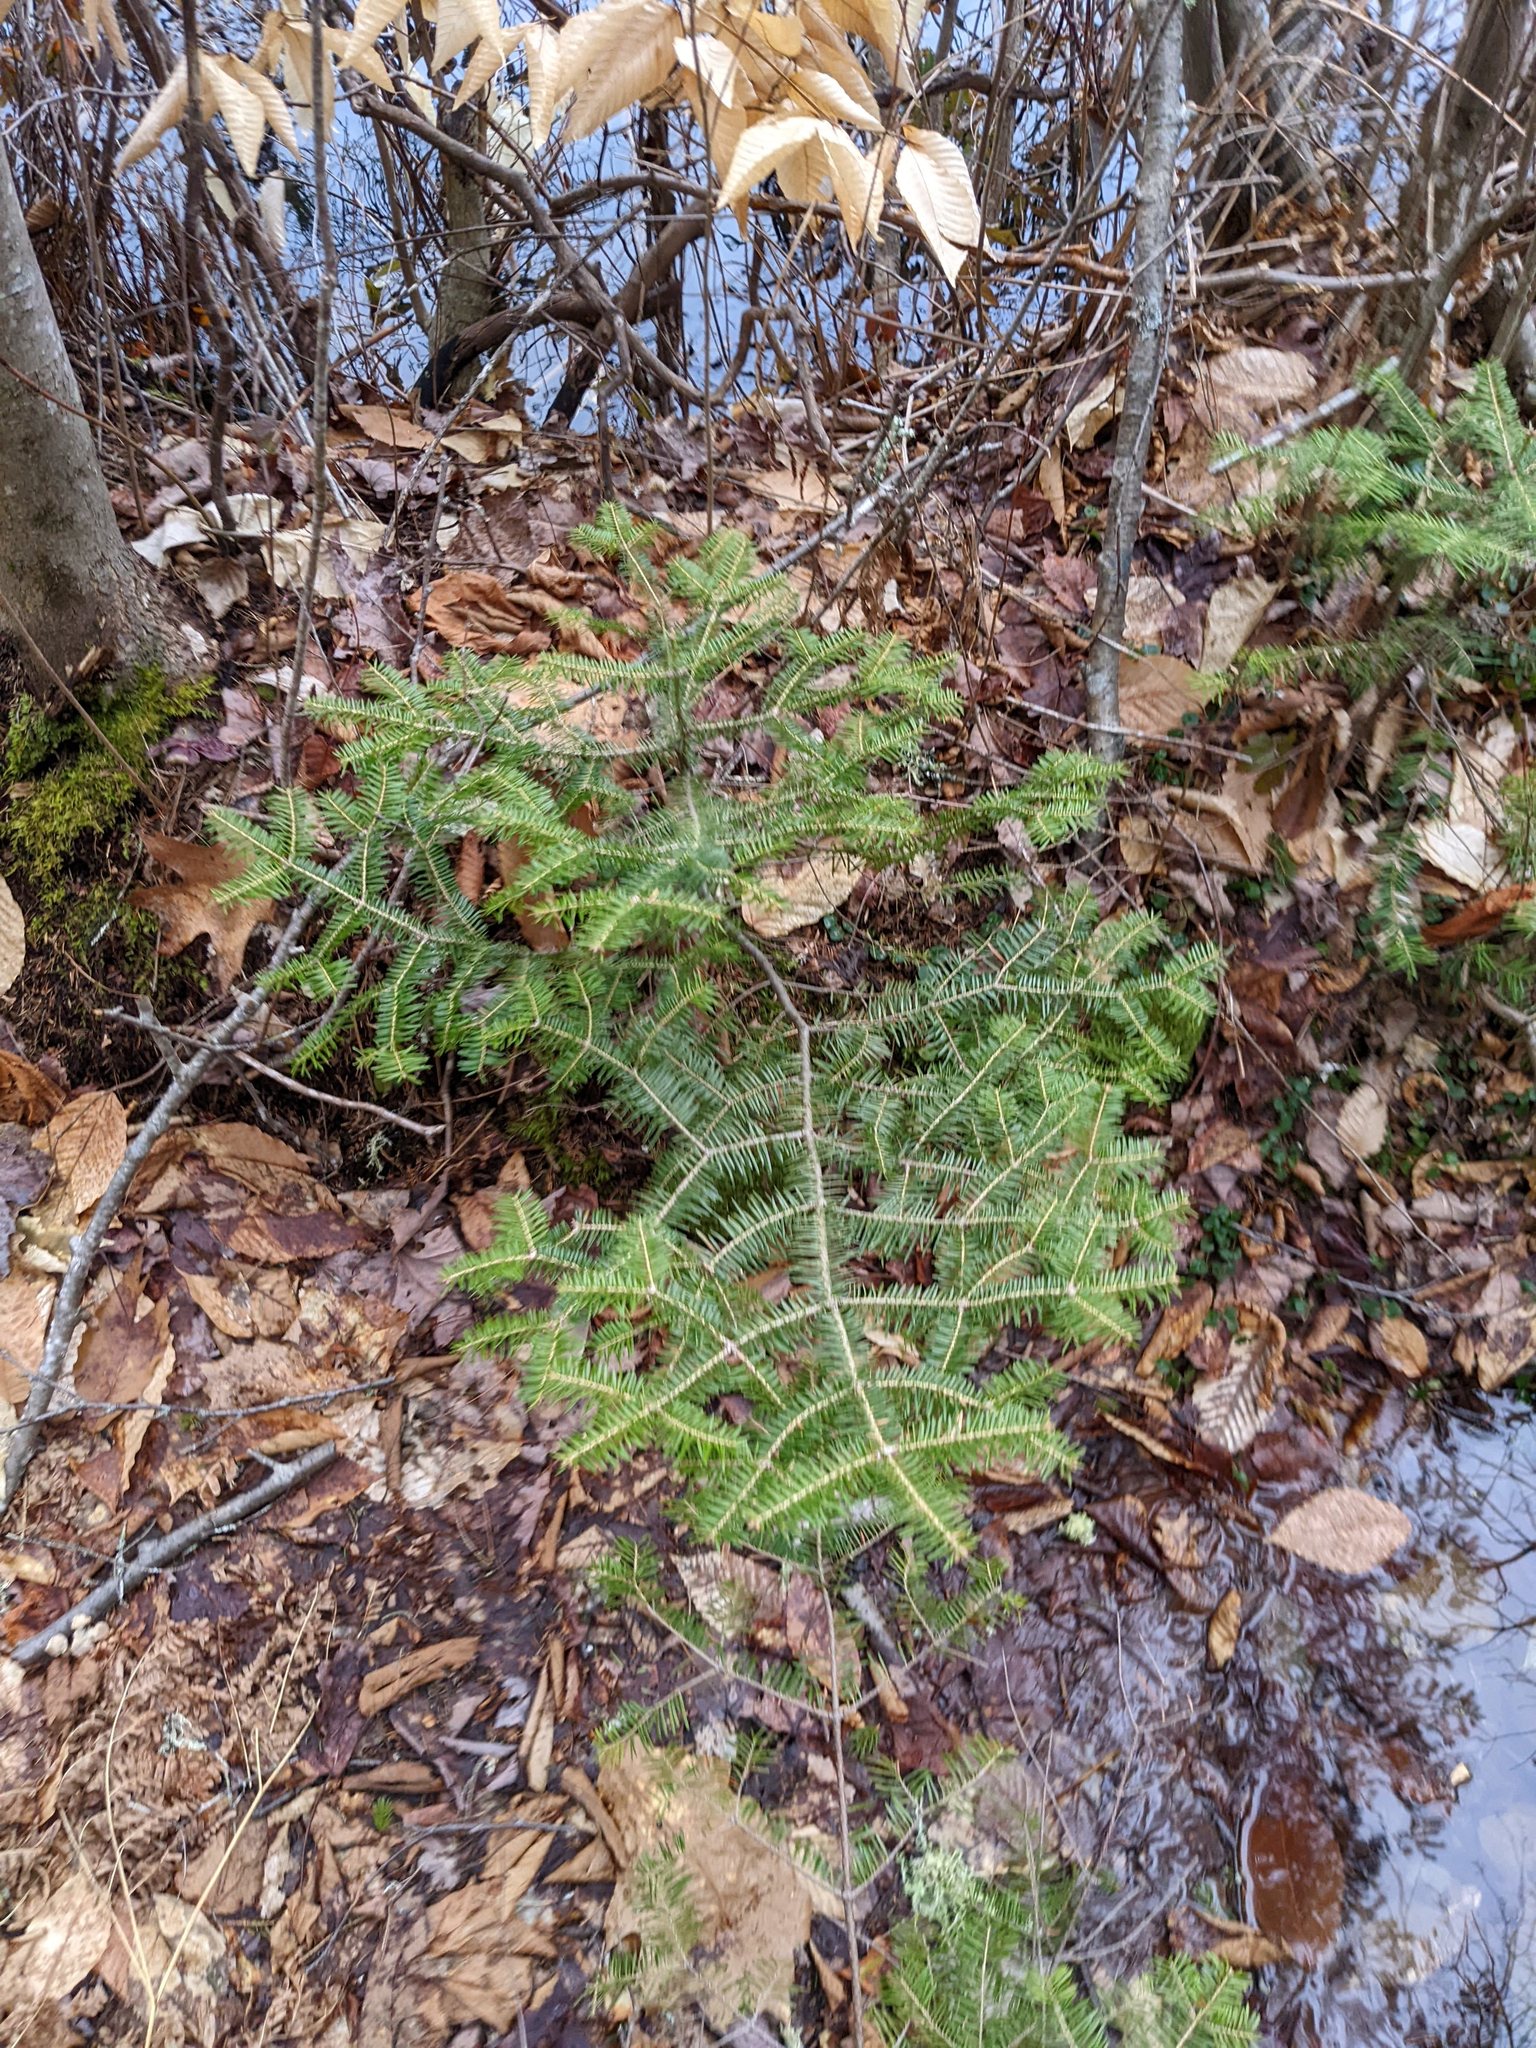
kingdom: Plantae
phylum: Tracheophyta
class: Pinopsida
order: Pinales
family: Pinaceae
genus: Abies
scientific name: Abies balsamea
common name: Balsam fir
